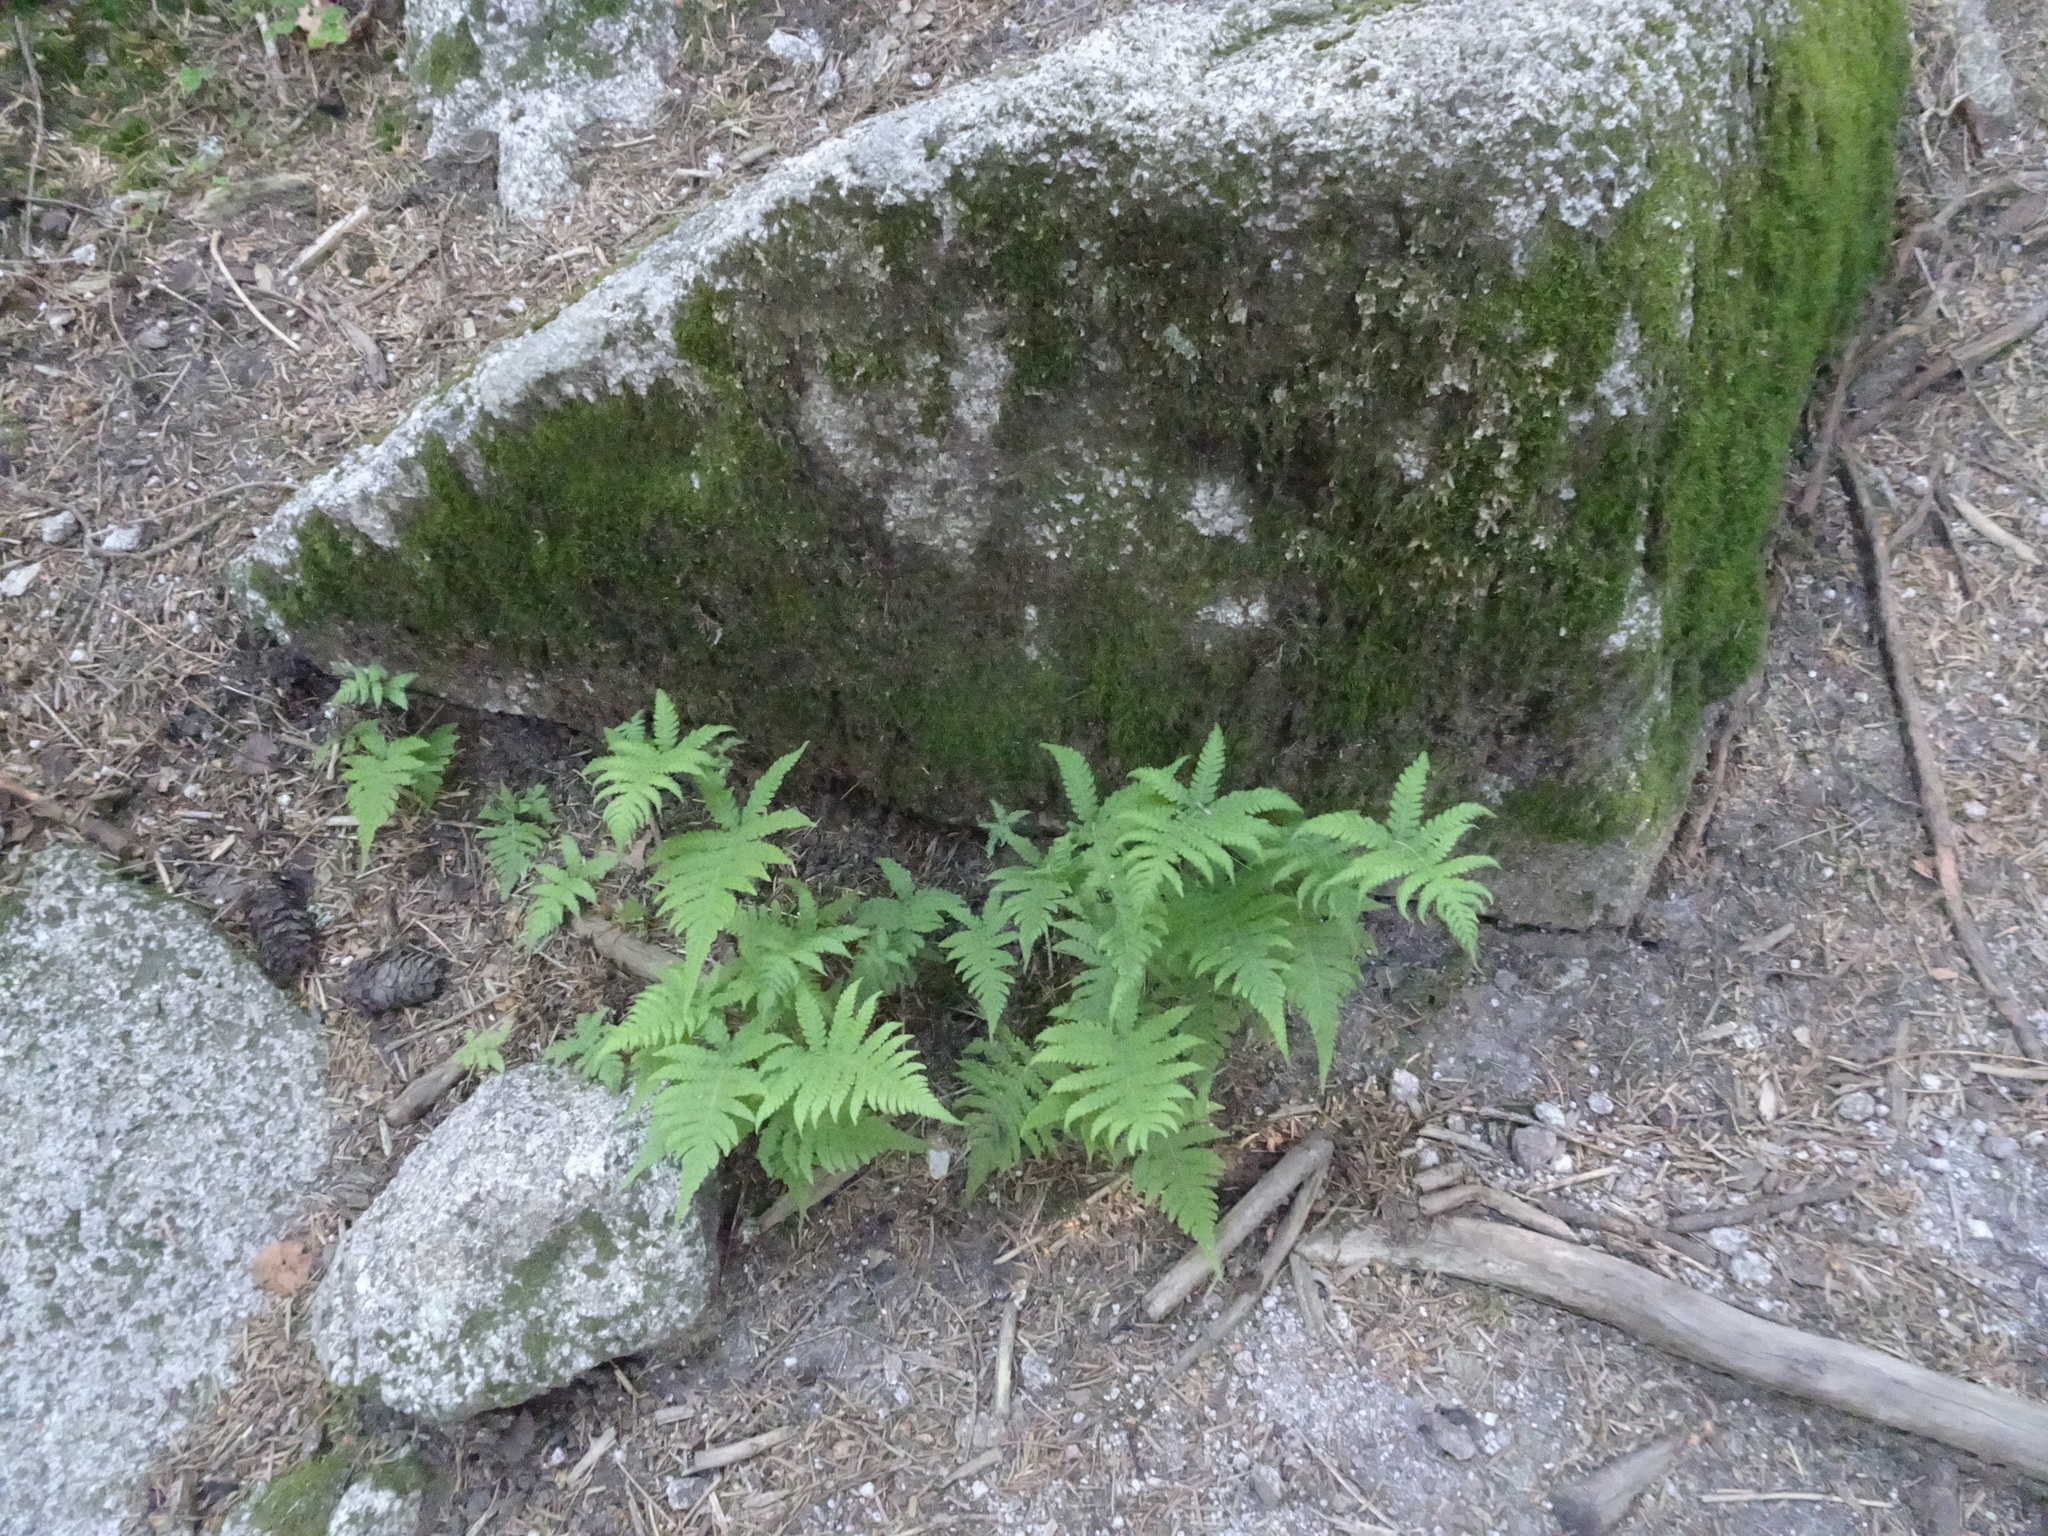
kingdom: Plantae
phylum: Tracheophyta
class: Polypodiopsida
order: Polypodiales
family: Thelypteridaceae
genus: Phegopteris
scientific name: Phegopteris connectilis
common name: Beech fern
